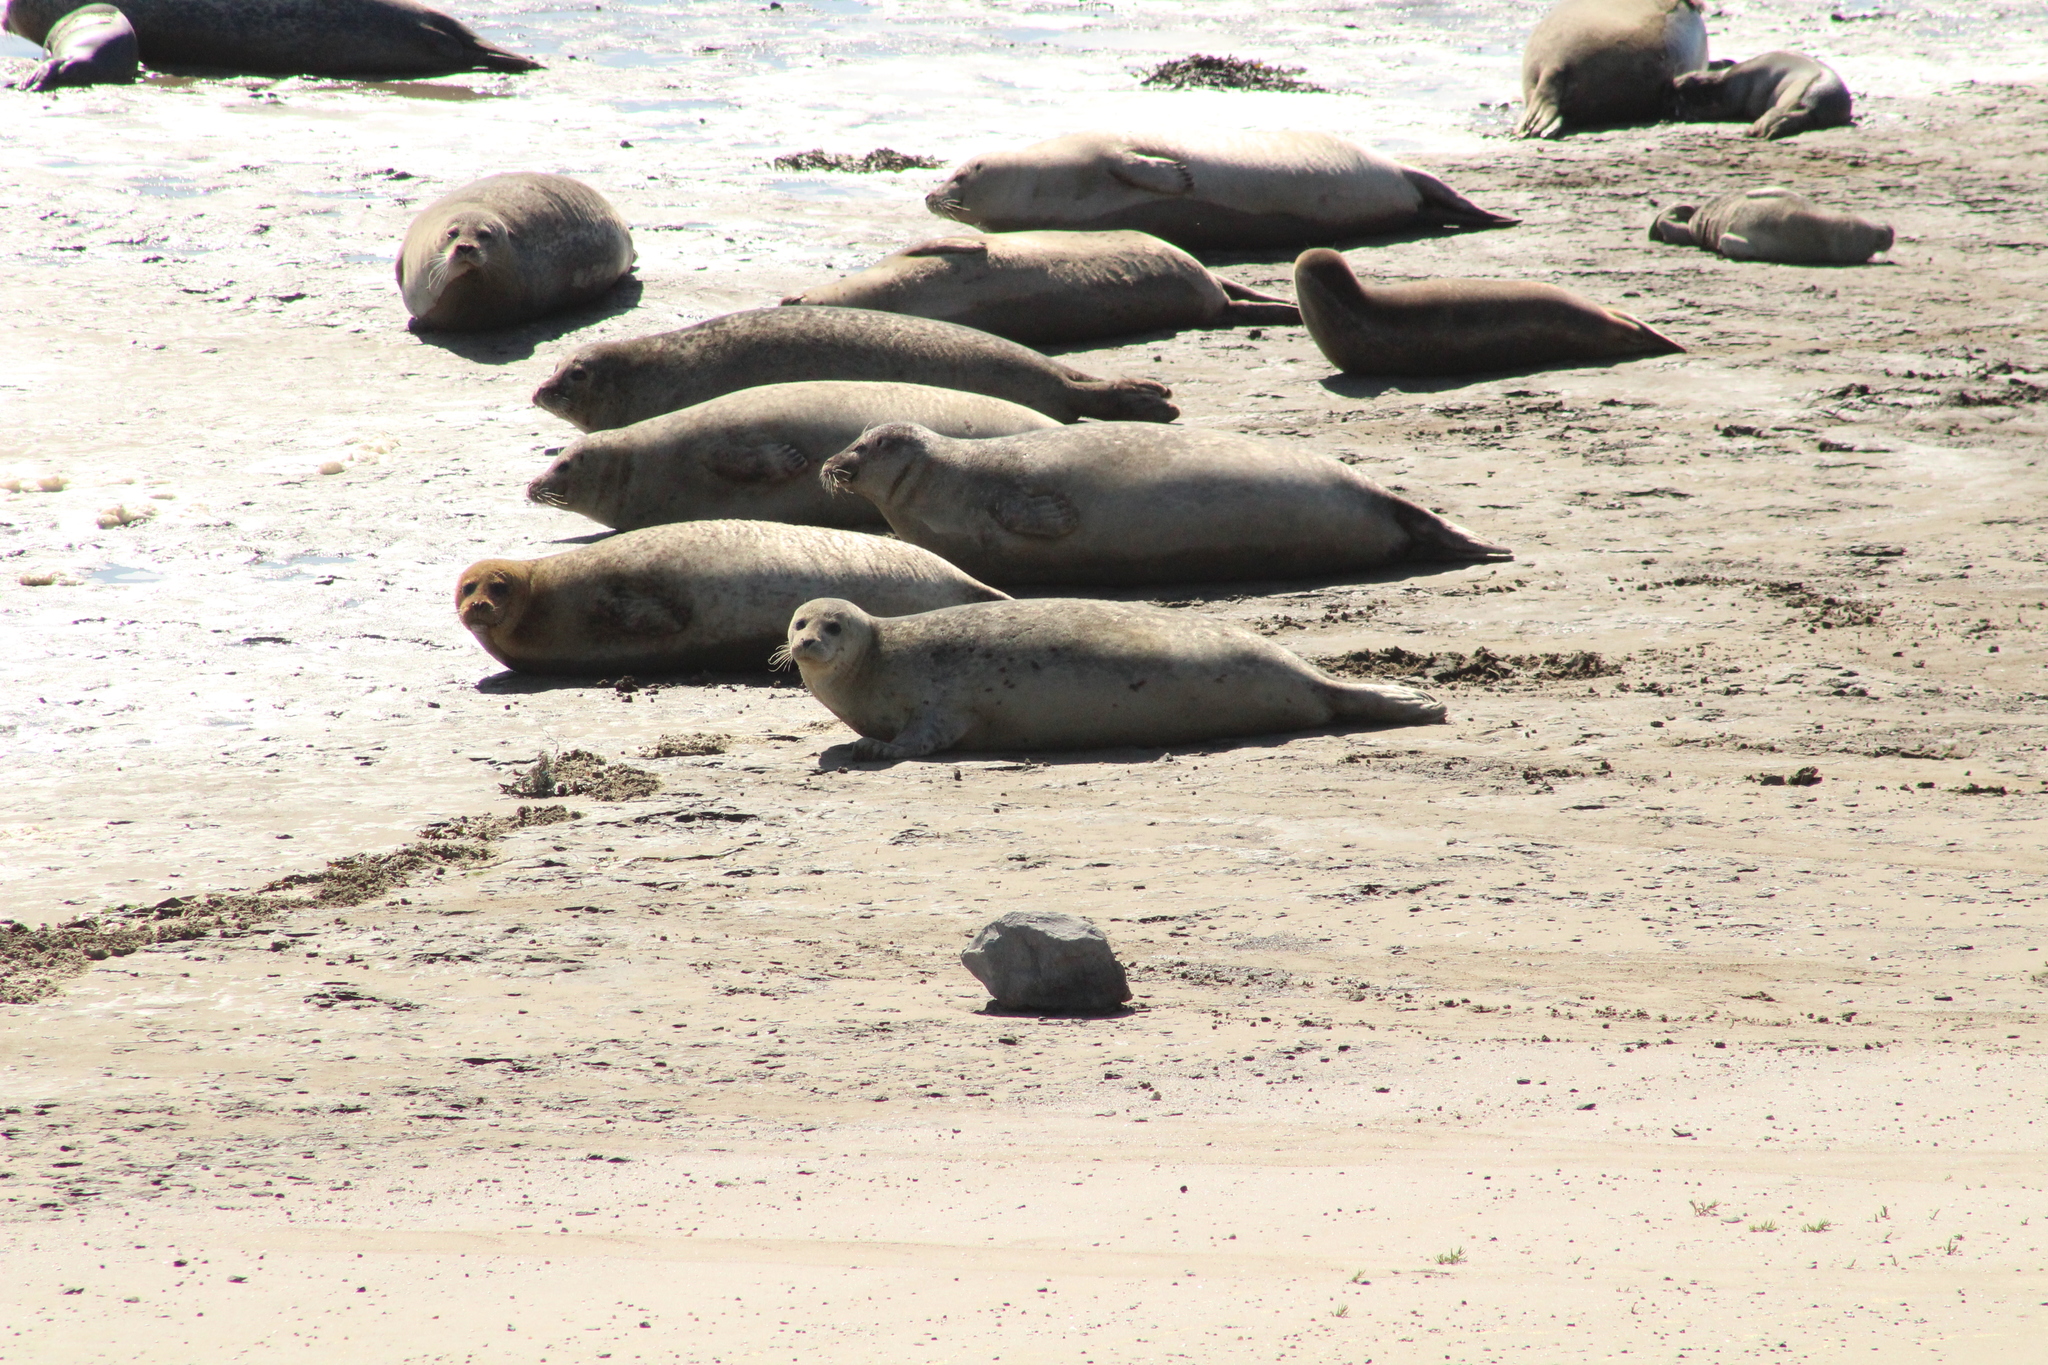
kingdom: Animalia
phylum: Chordata
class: Mammalia
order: Carnivora
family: Phocidae
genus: Phoca
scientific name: Phoca vitulina
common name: Harbor seal
